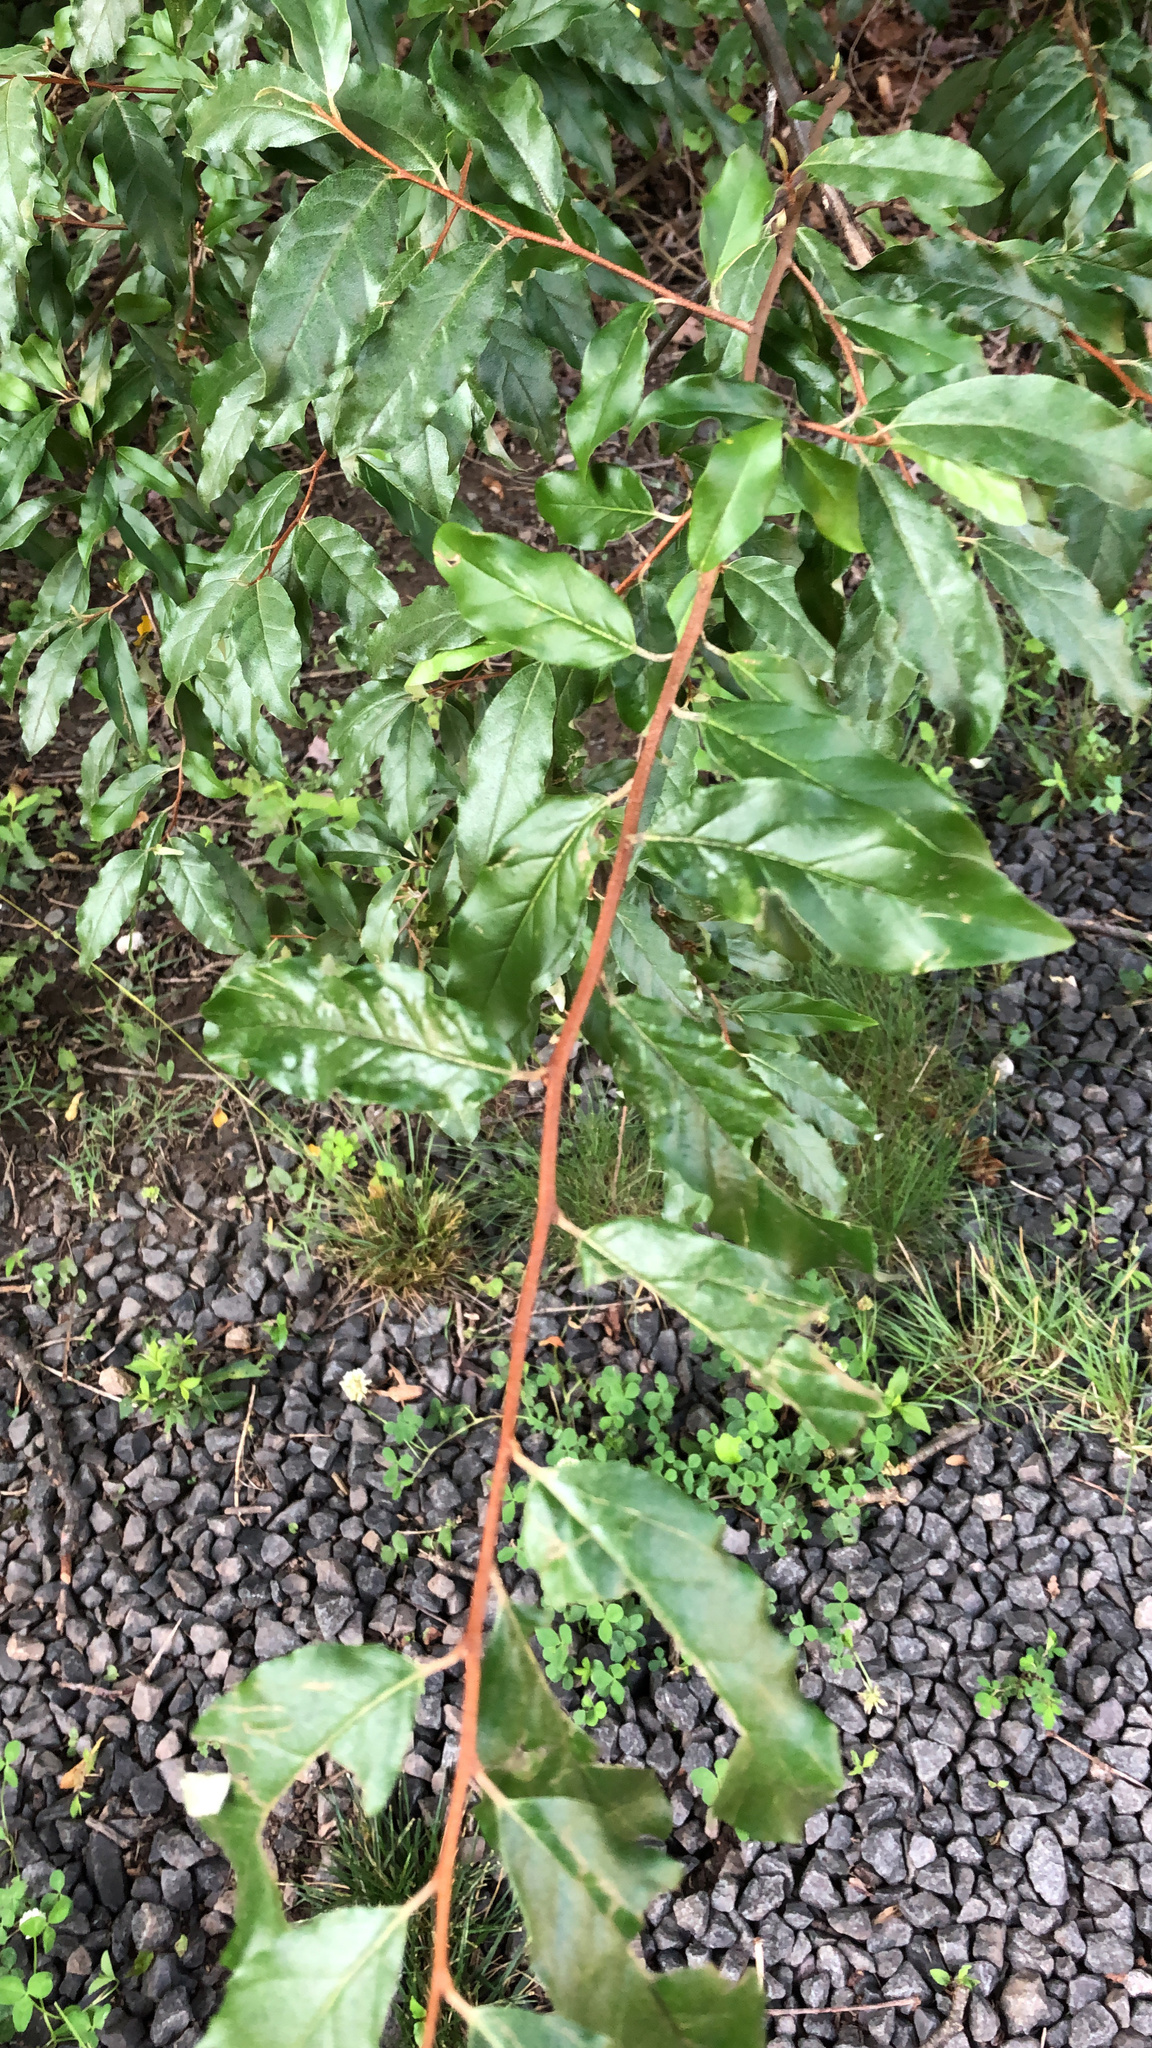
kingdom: Plantae
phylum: Tracheophyta
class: Magnoliopsida
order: Rosales
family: Elaeagnaceae
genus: Elaeagnus
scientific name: Elaeagnus umbellata
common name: Autumn olive
